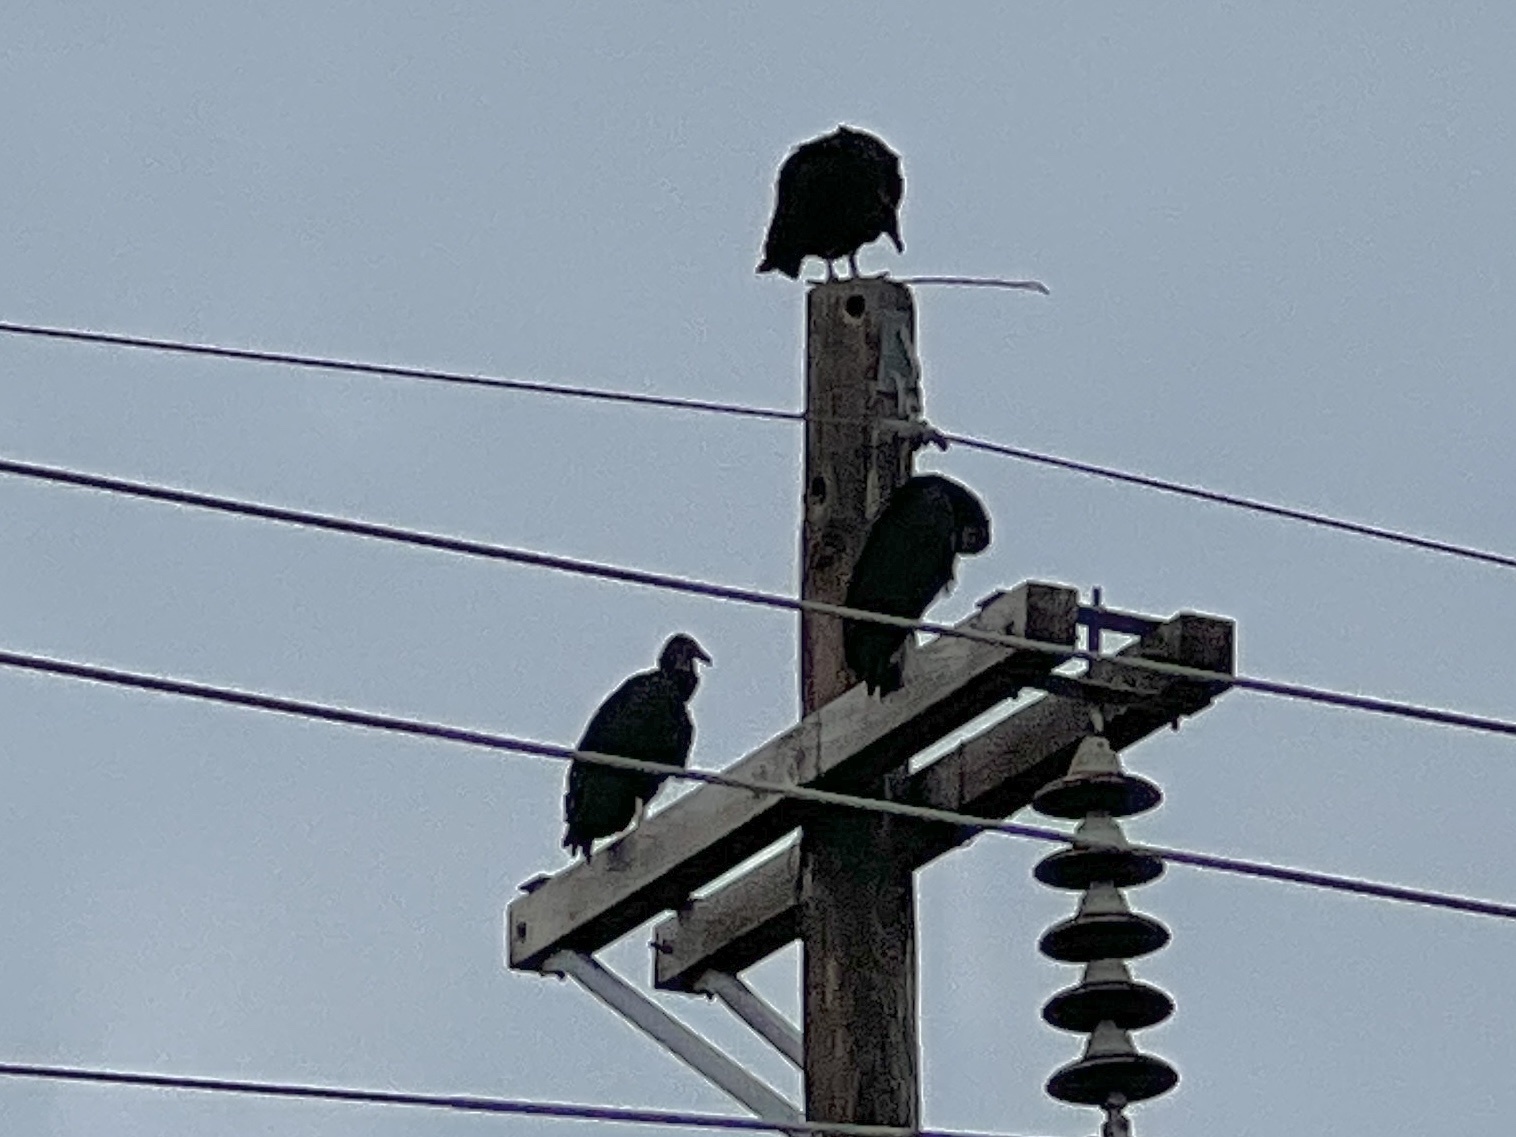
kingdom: Animalia
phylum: Chordata
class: Aves
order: Accipitriformes
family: Cathartidae
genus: Coragyps
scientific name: Coragyps atratus
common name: Black vulture
